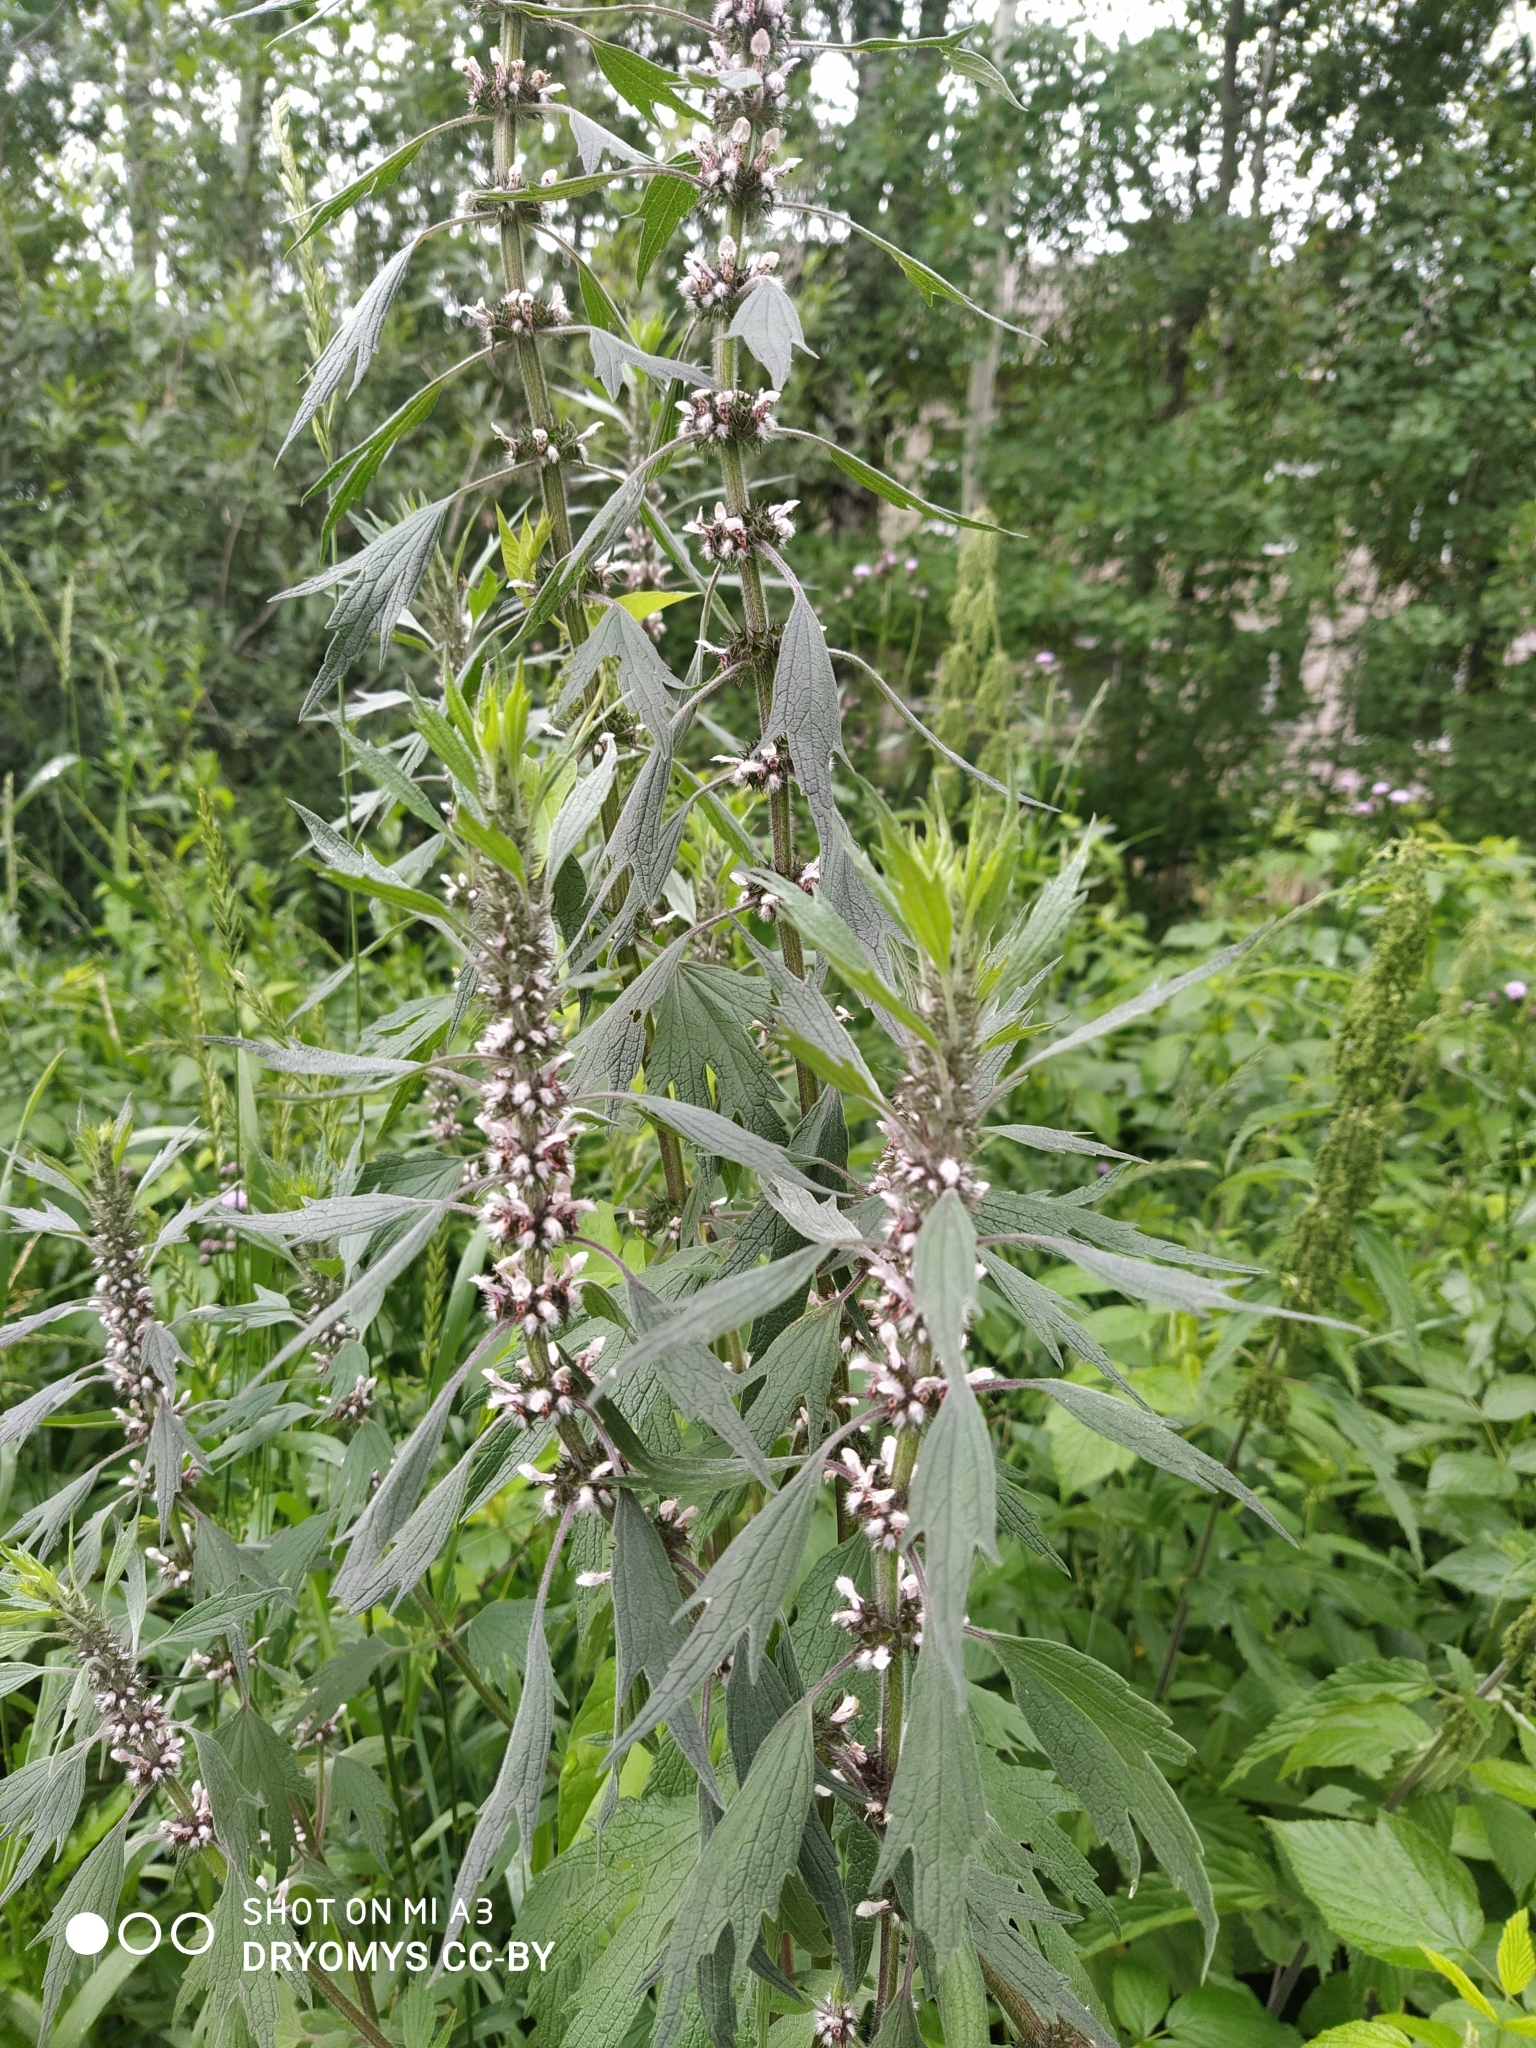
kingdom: Plantae
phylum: Tracheophyta
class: Magnoliopsida
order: Lamiales
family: Lamiaceae
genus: Leonurus
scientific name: Leonurus quinquelobatus
